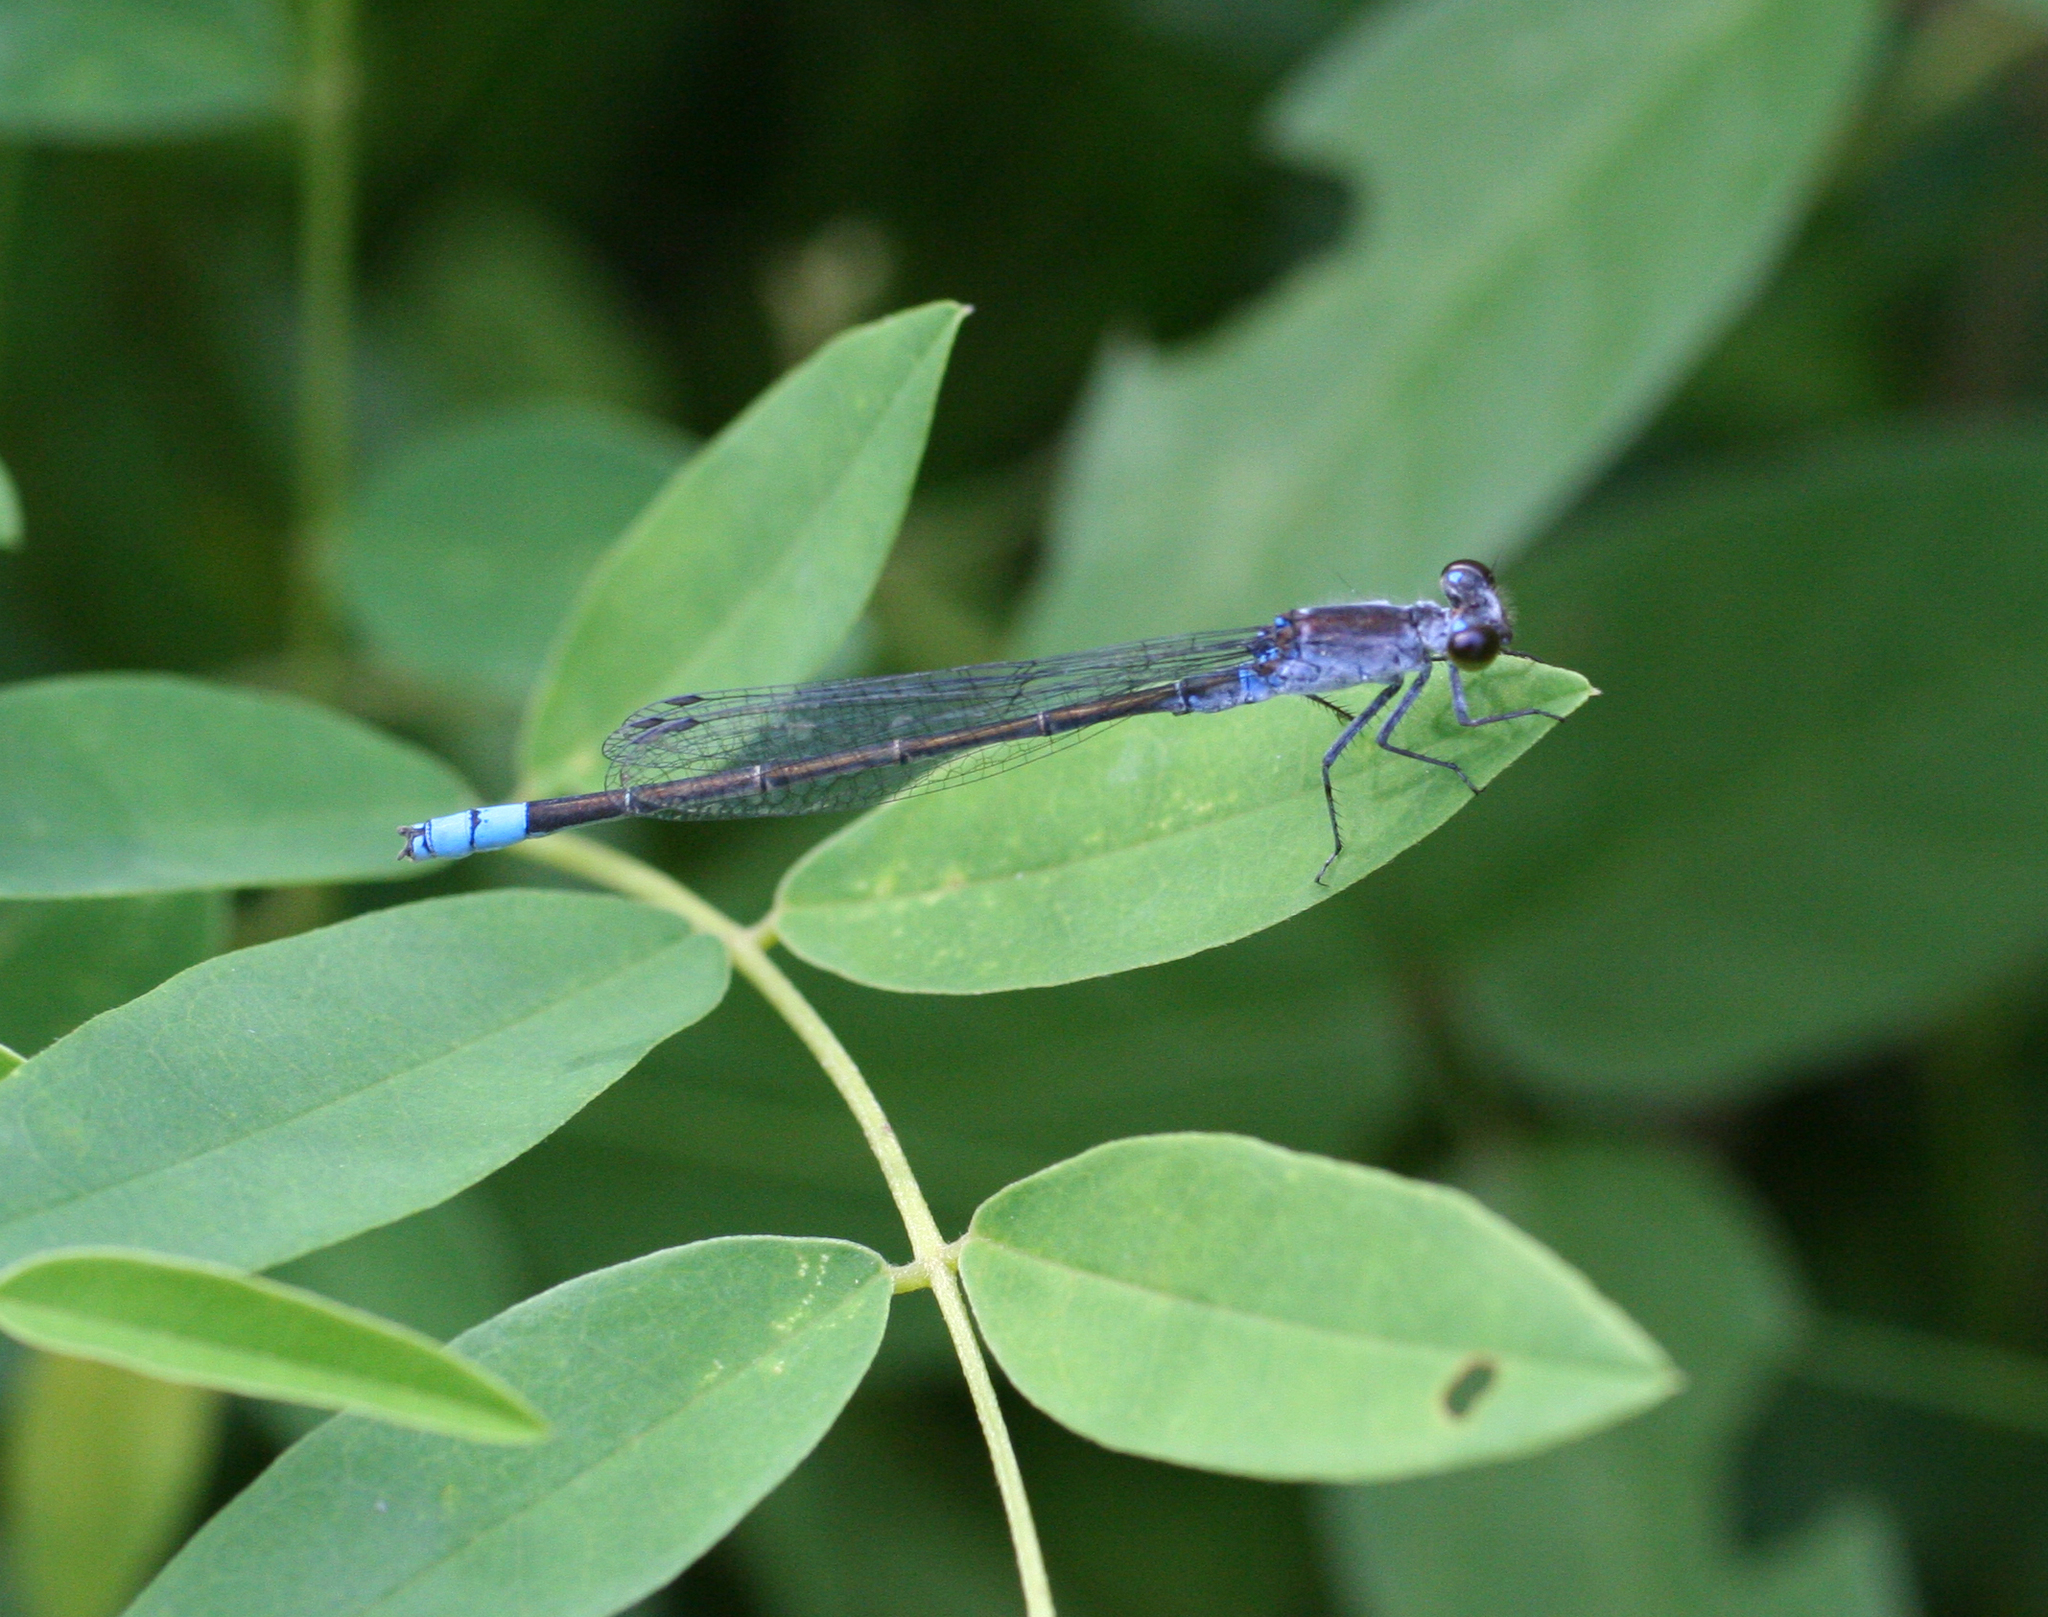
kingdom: Animalia
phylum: Arthropoda
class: Insecta
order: Odonata
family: Coenagrionidae
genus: Paracercion
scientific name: Paracercion calamorum
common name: Dusky lilysquatter
